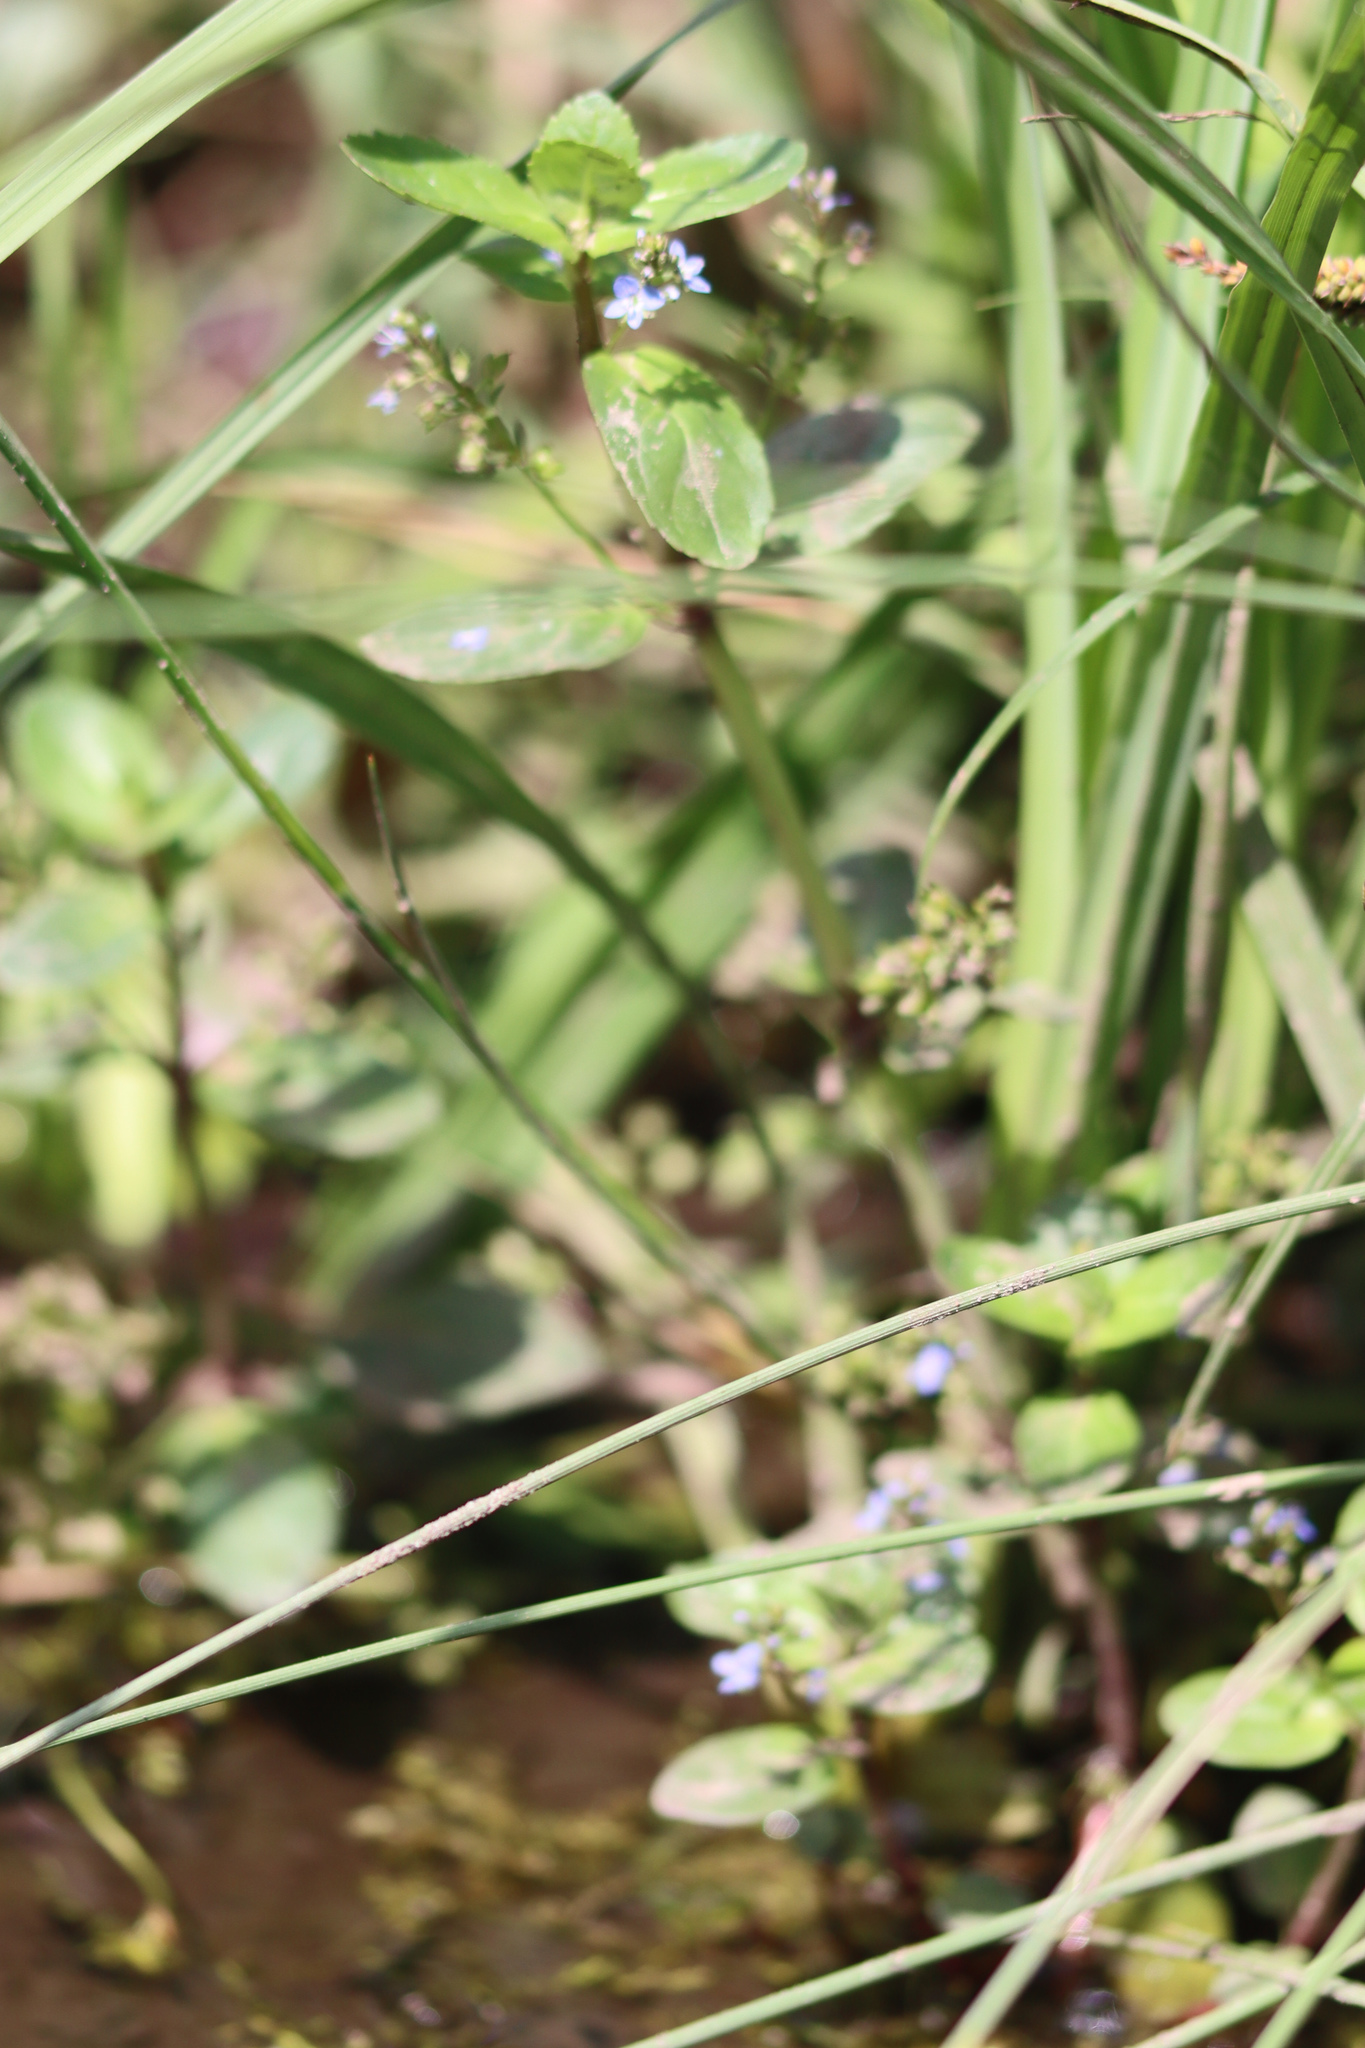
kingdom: Plantae
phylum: Tracheophyta
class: Magnoliopsida
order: Lamiales
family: Plantaginaceae
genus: Veronica
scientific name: Veronica beccabunga
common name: Brooklime
